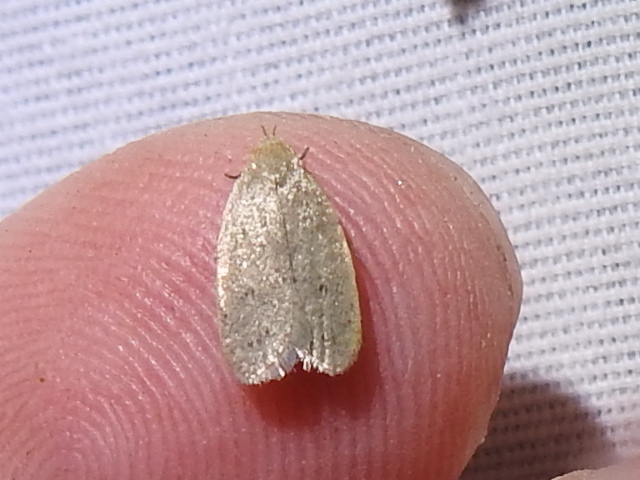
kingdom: Animalia
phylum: Arthropoda
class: Insecta
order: Lepidoptera
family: Oecophoridae
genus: Inga
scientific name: Inga cretacea
